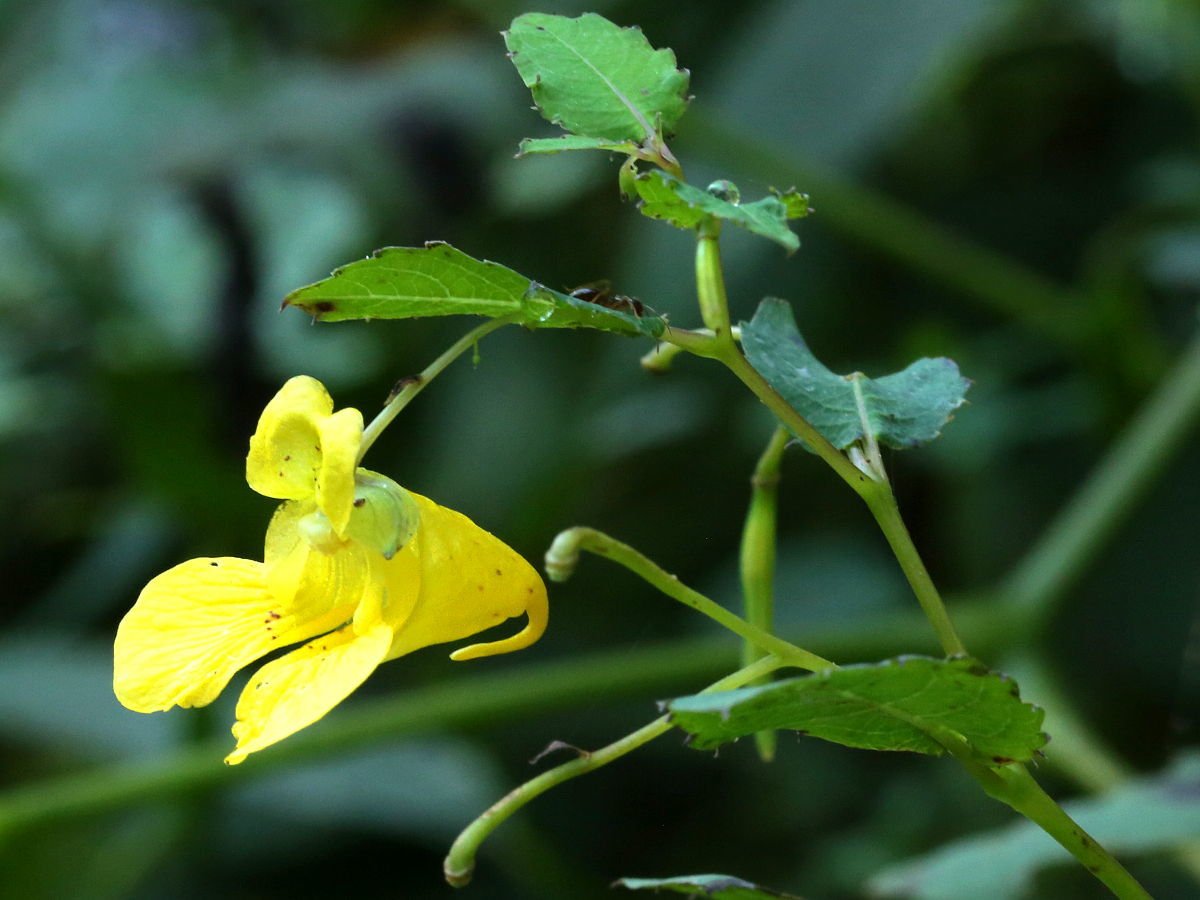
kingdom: Plantae
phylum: Tracheophyta
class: Magnoliopsida
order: Ericales
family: Balsaminaceae
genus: Impatiens
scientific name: Impatiens pallida
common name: Pale snapweed
